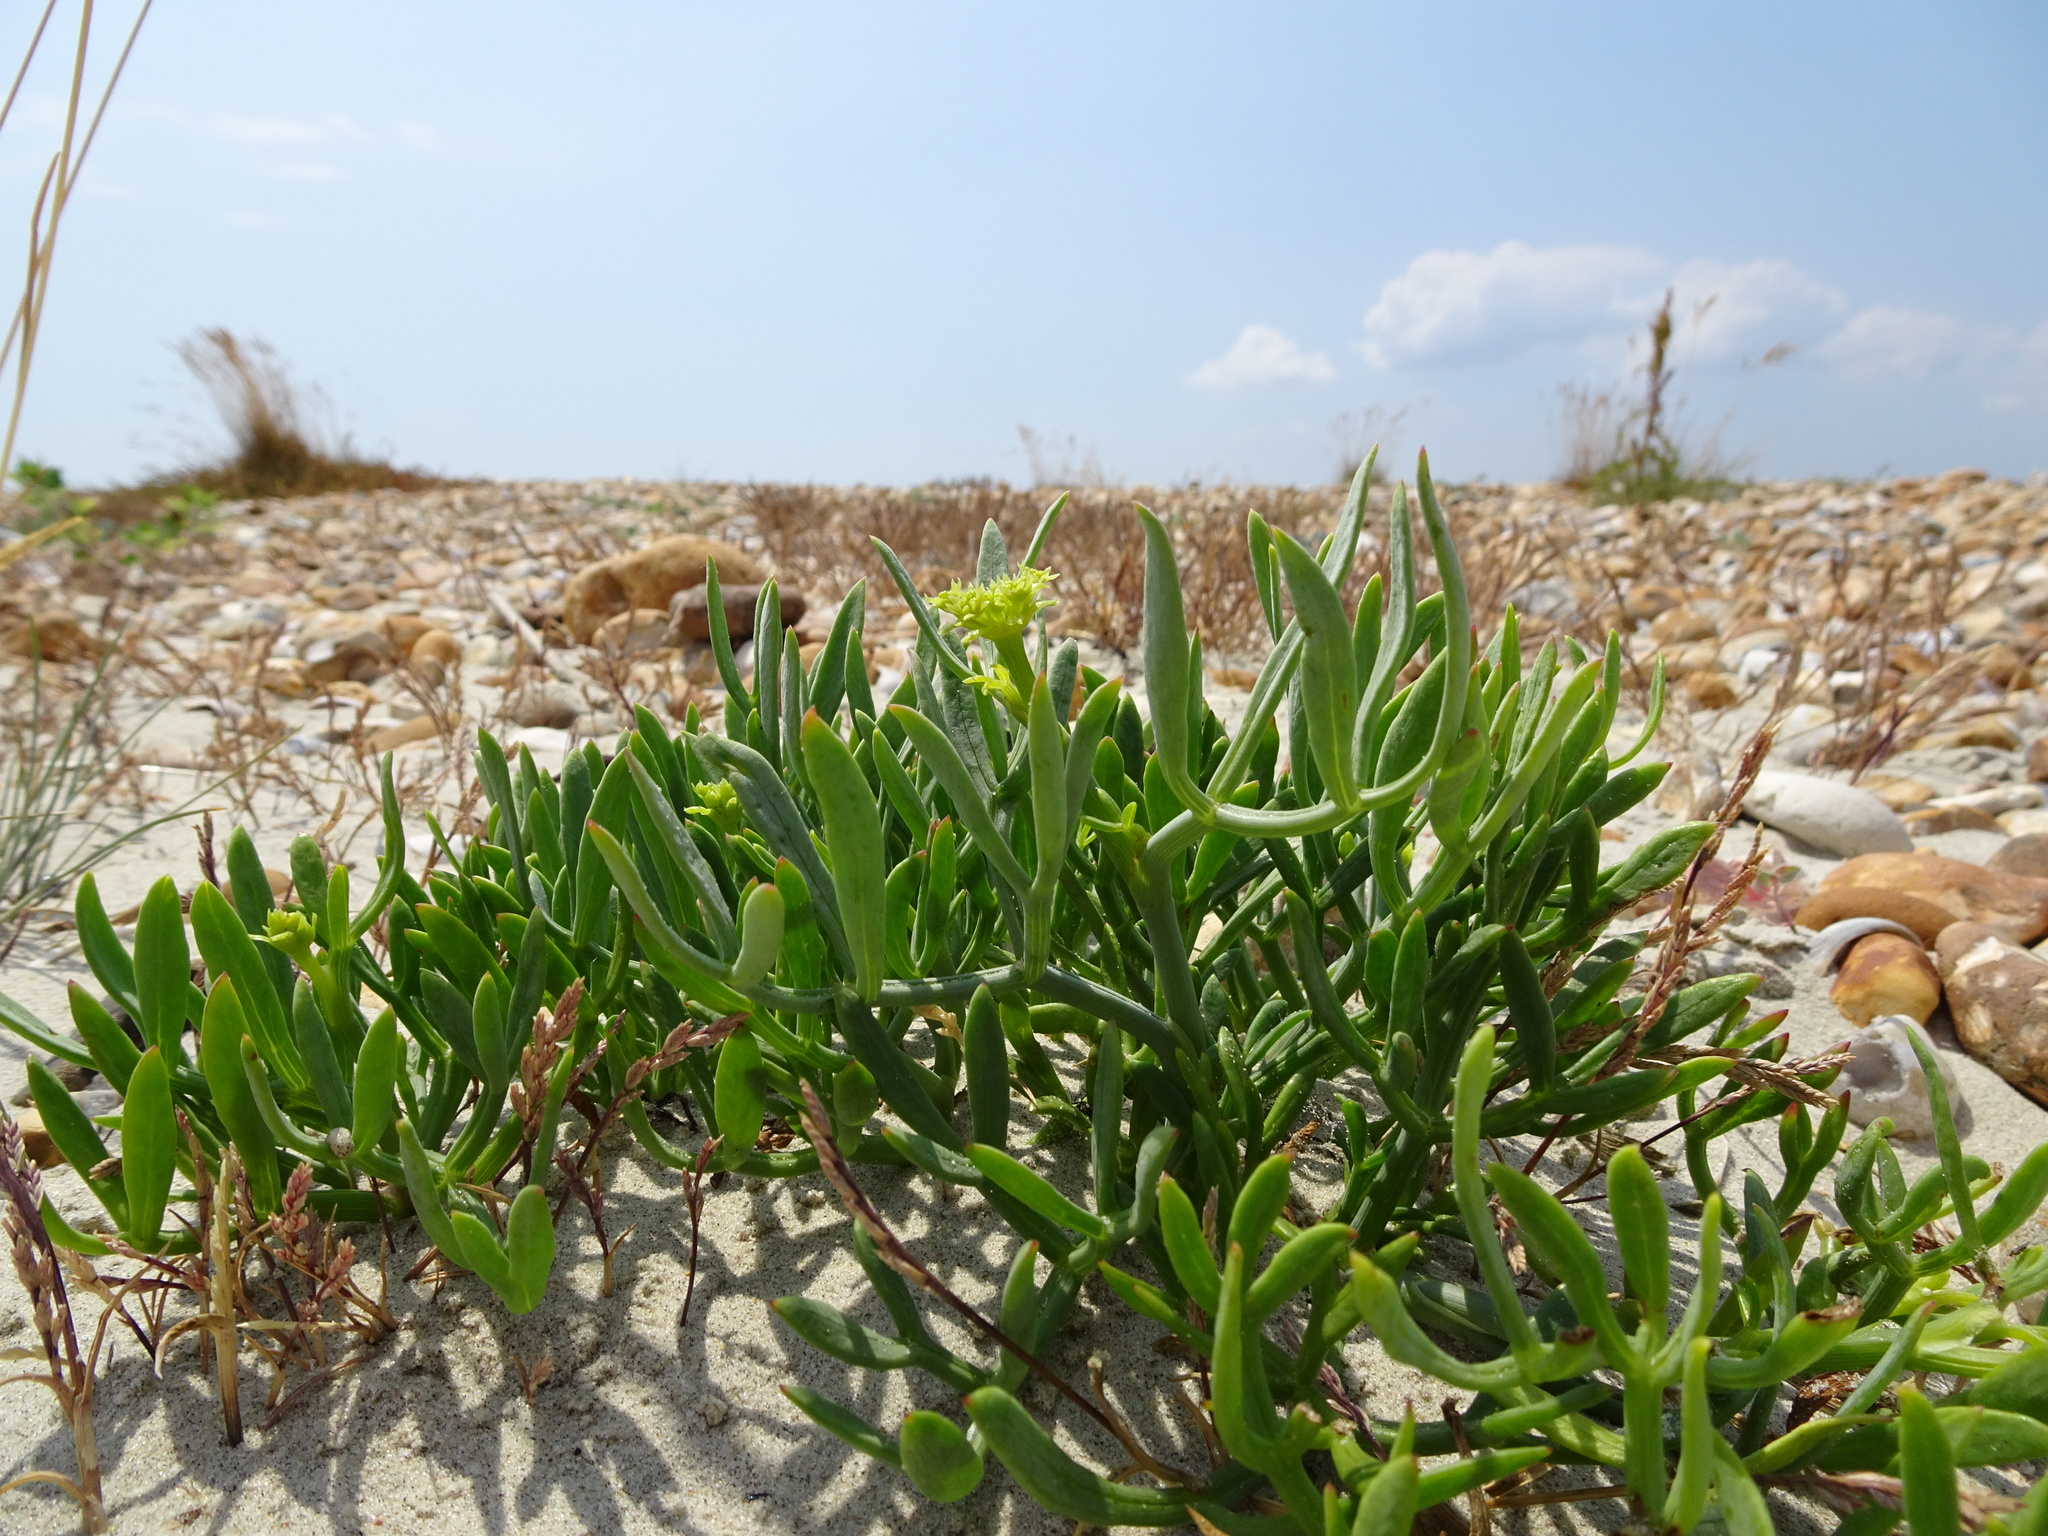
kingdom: Plantae
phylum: Tracheophyta
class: Magnoliopsida
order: Apiales
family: Apiaceae
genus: Crithmum
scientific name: Crithmum maritimum
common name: Rock samphire
